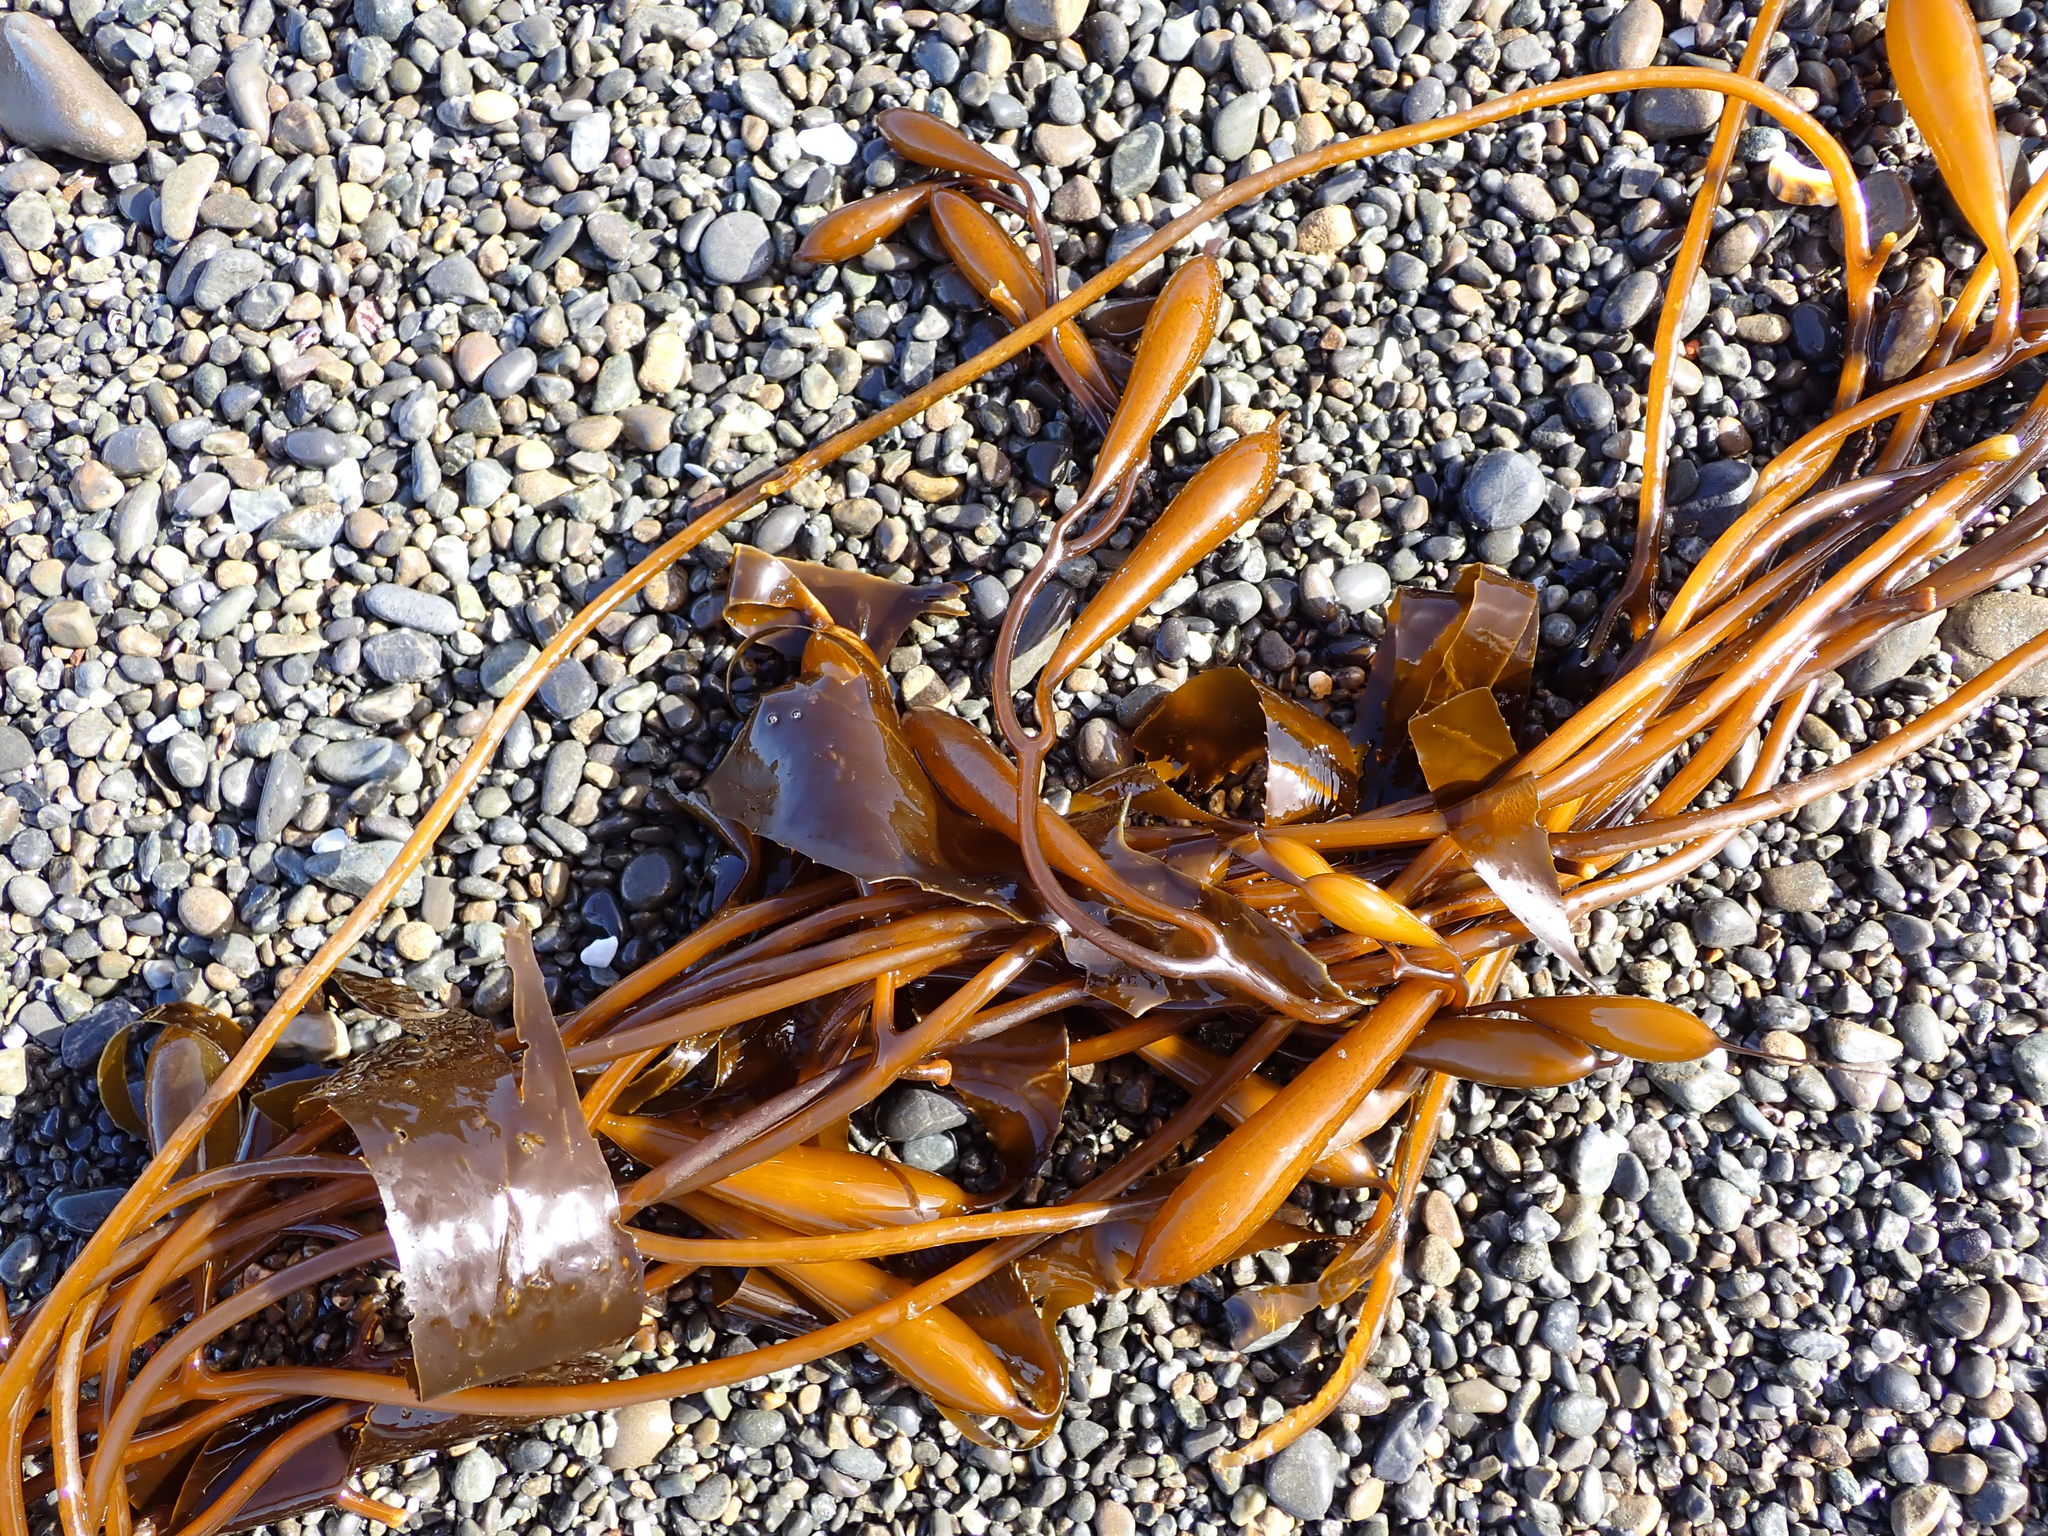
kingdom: Chromista
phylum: Ochrophyta
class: Phaeophyceae
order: Laminariales
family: Laminariaceae
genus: Macrocystis
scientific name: Macrocystis pyrifera
